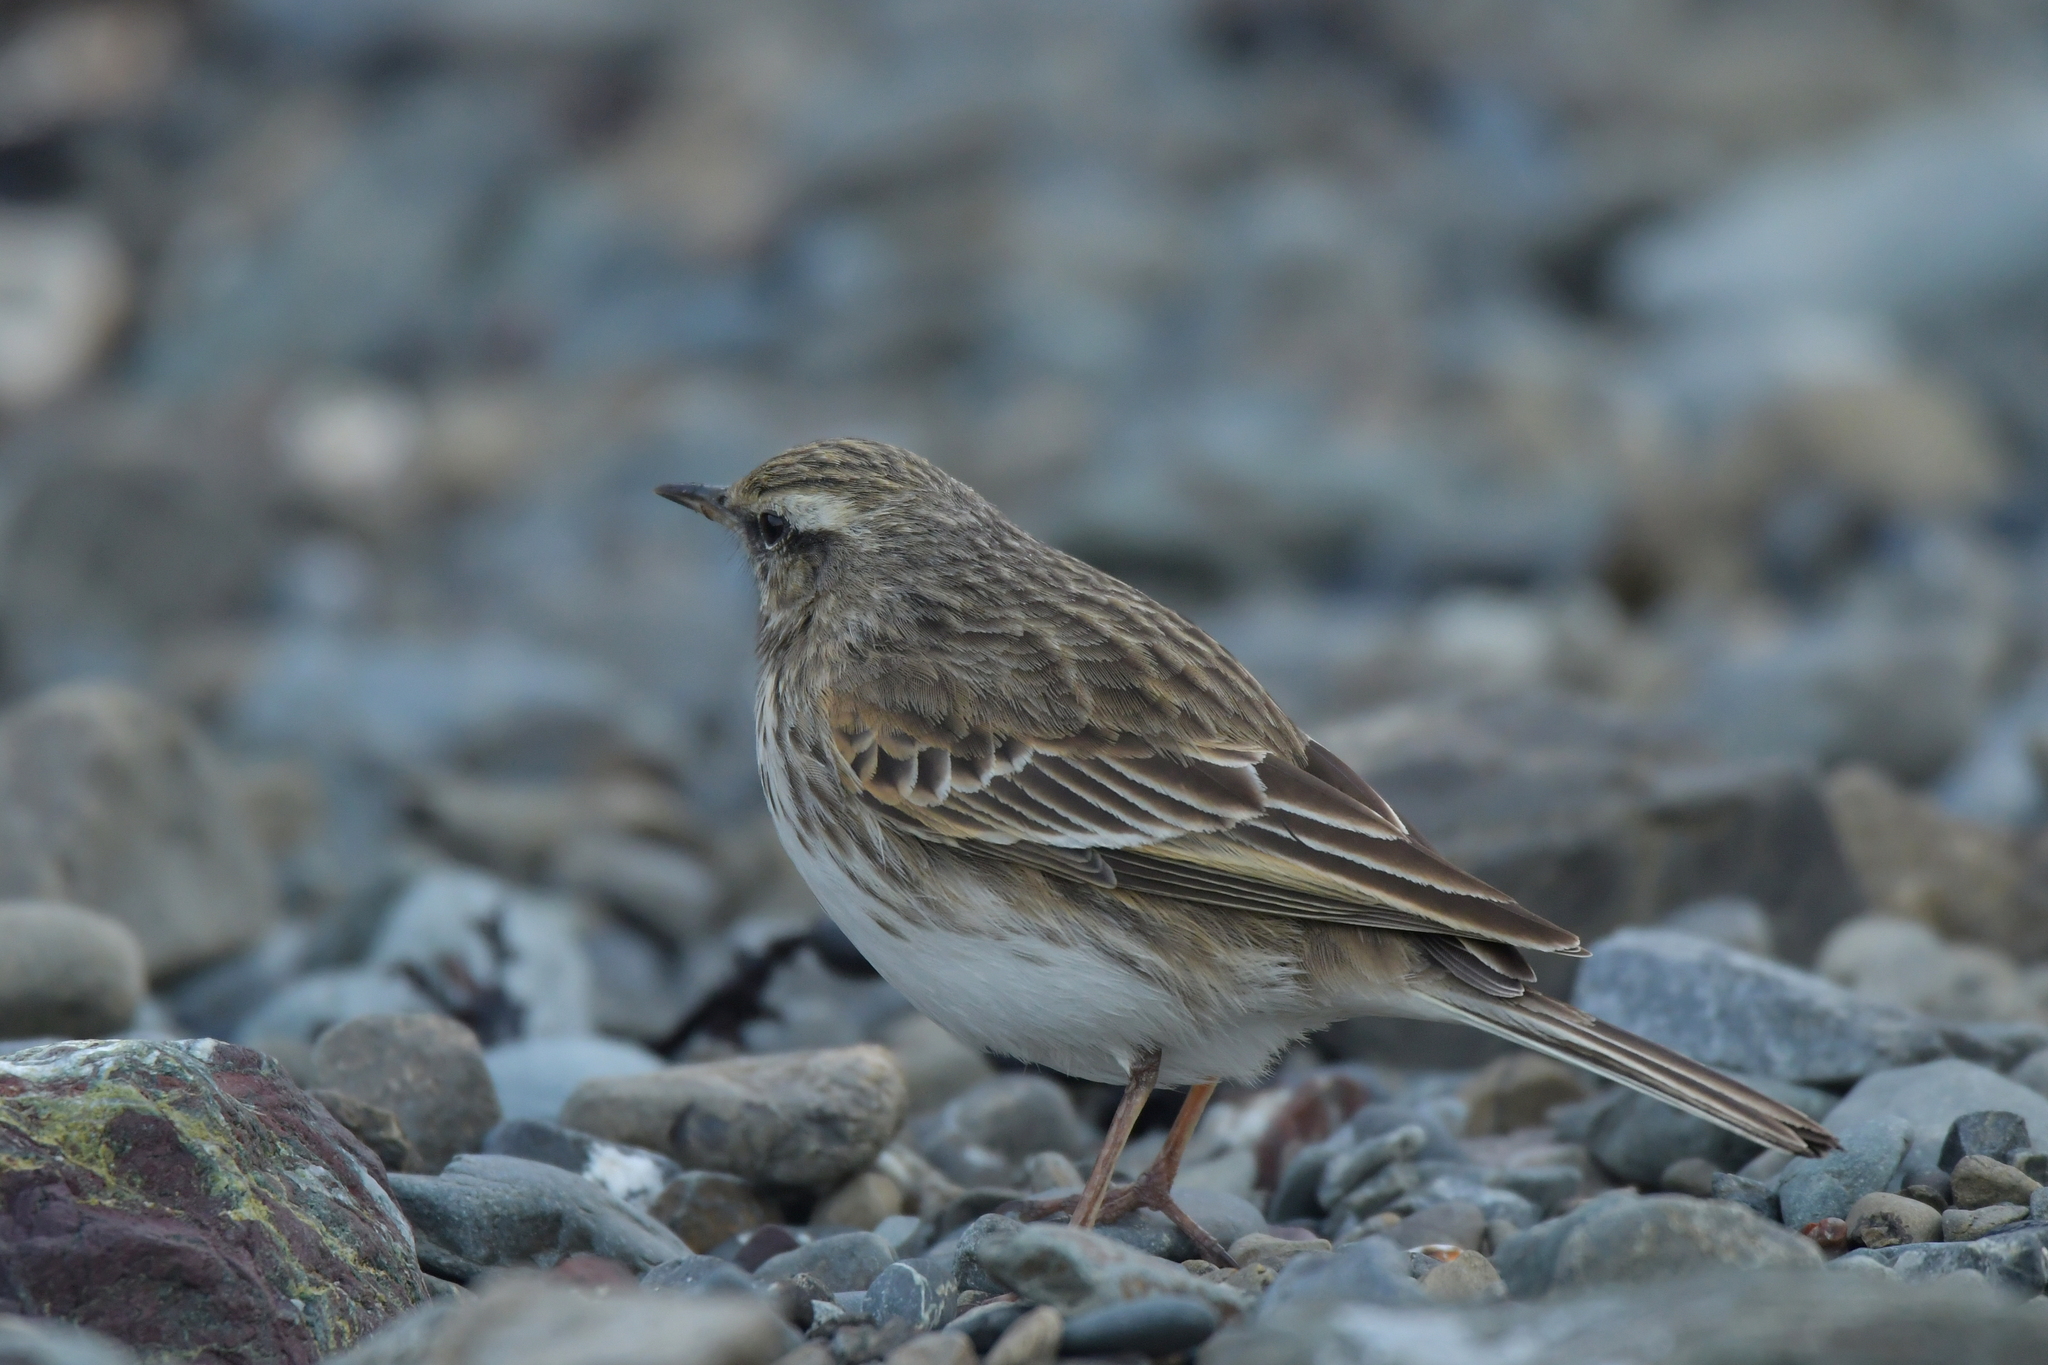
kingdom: Animalia
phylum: Chordata
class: Aves
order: Passeriformes
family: Motacillidae
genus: Anthus
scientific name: Anthus novaeseelandiae
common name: New zealand pipit
